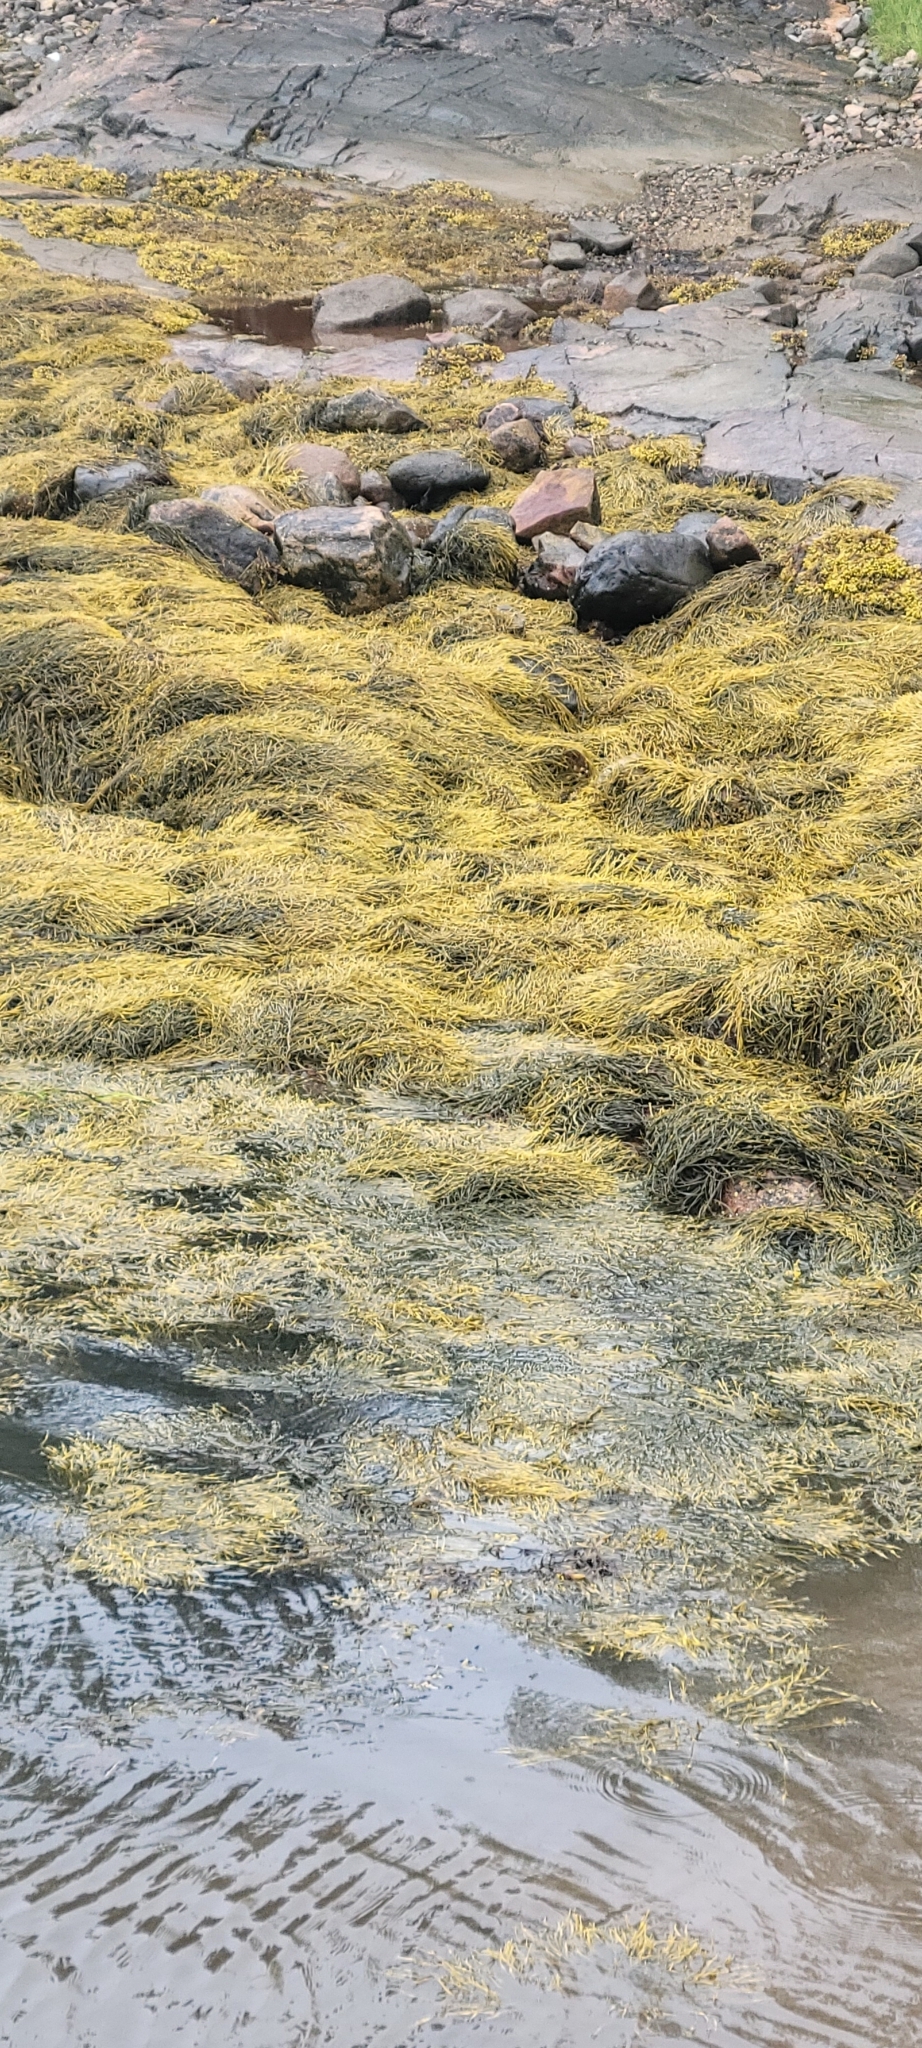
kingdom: Chromista
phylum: Ochrophyta
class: Phaeophyceae
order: Fucales
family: Fucaceae
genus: Ascophyllum
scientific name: Ascophyllum nodosum
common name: Knotted wrack
